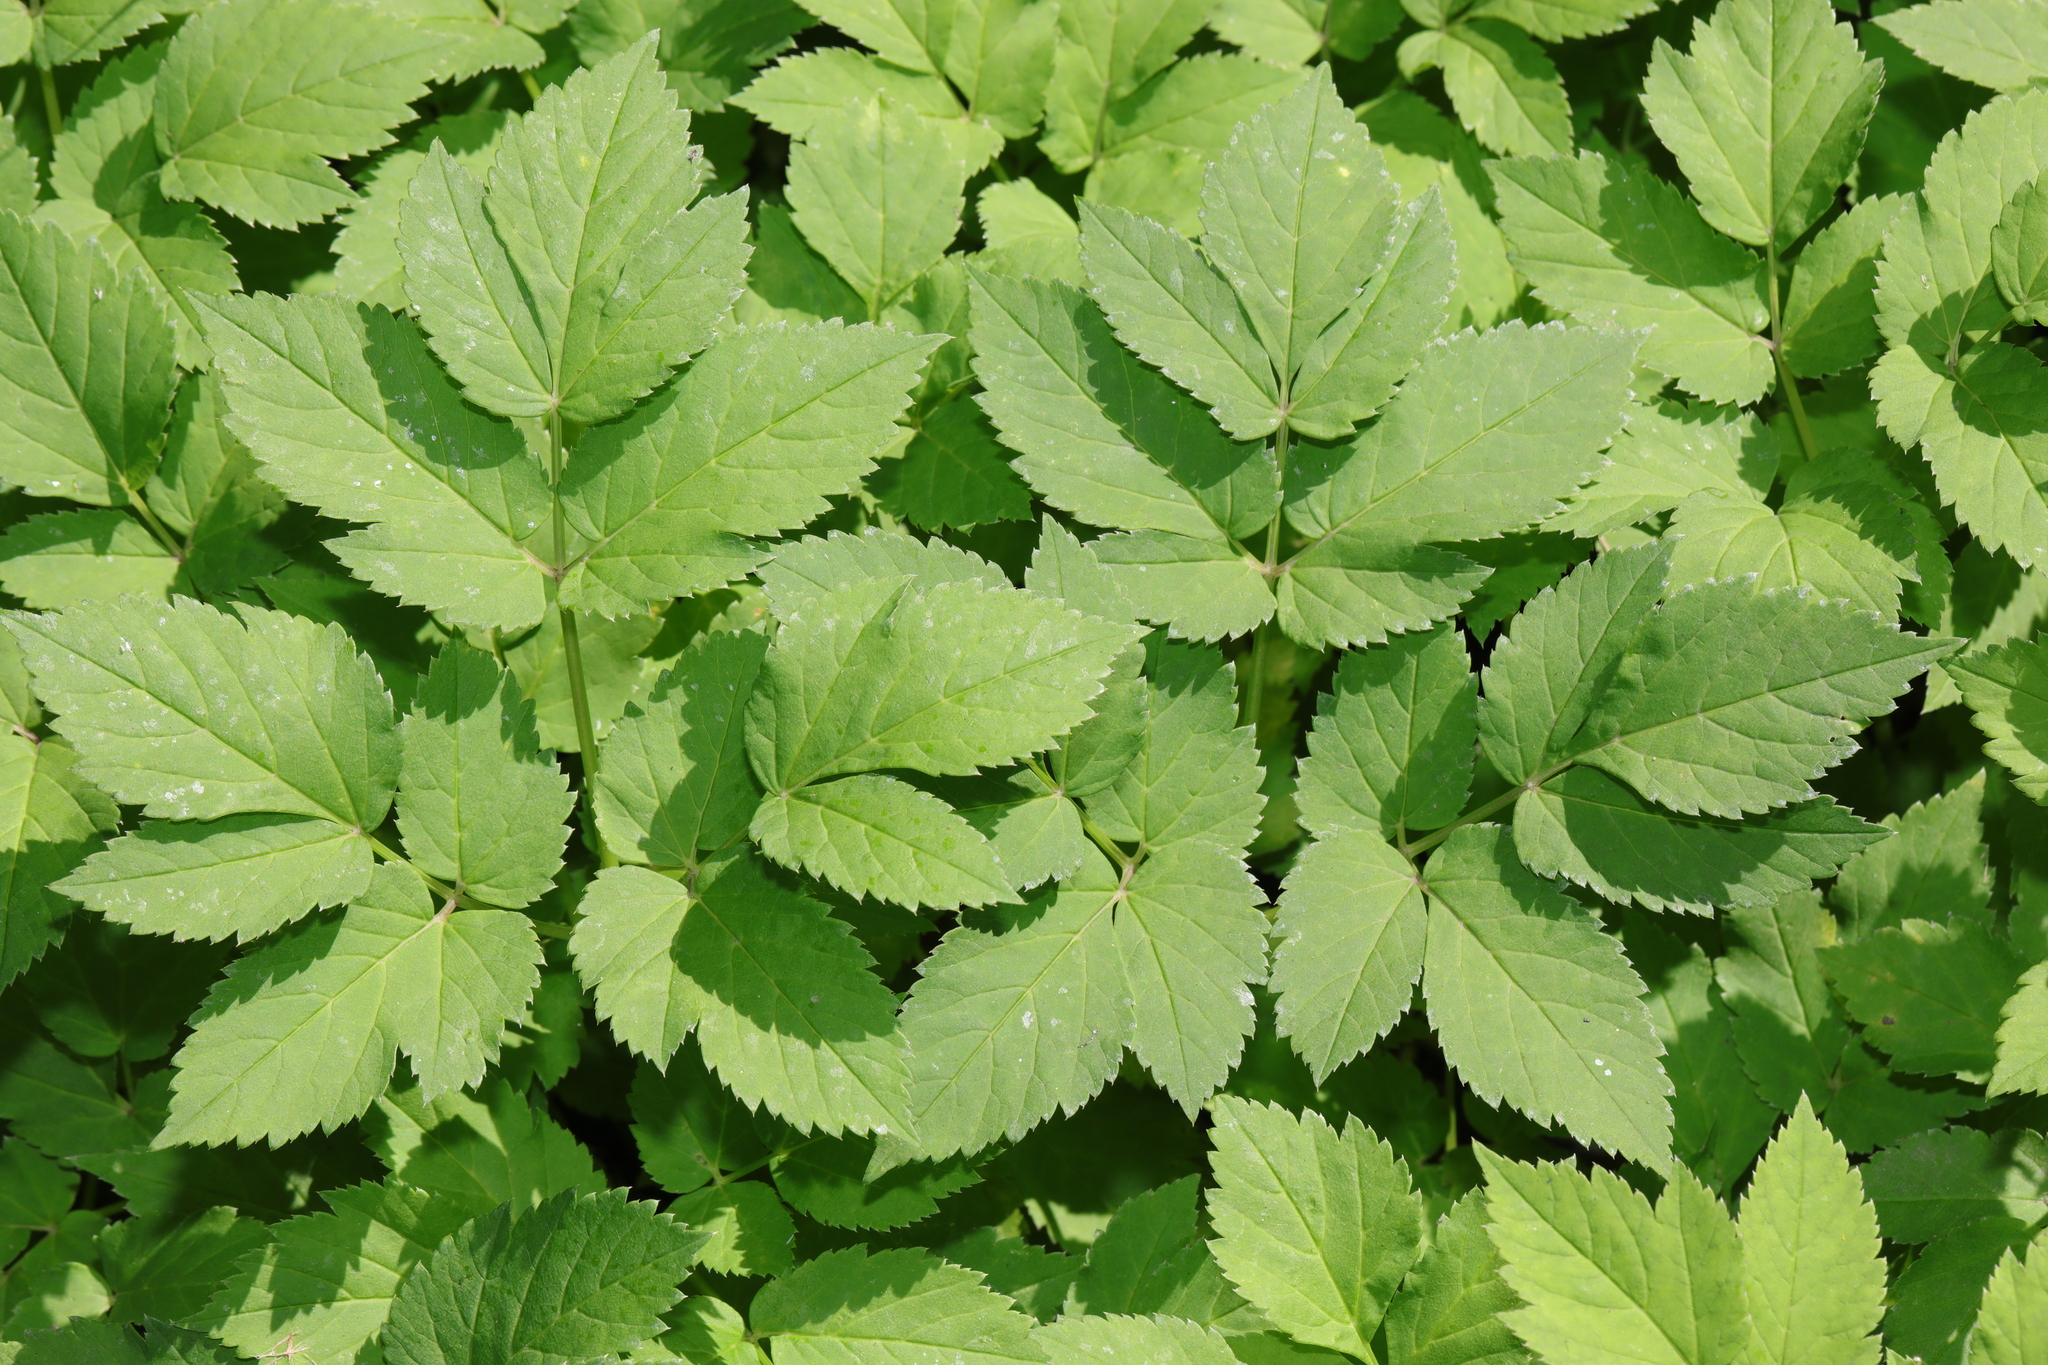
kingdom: Plantae
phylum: Tracheophyta
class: Magnoliopsida
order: Apiales
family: Apiaceae
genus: Aegopodium
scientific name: Aegopodium podagraria
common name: Ground-elder
